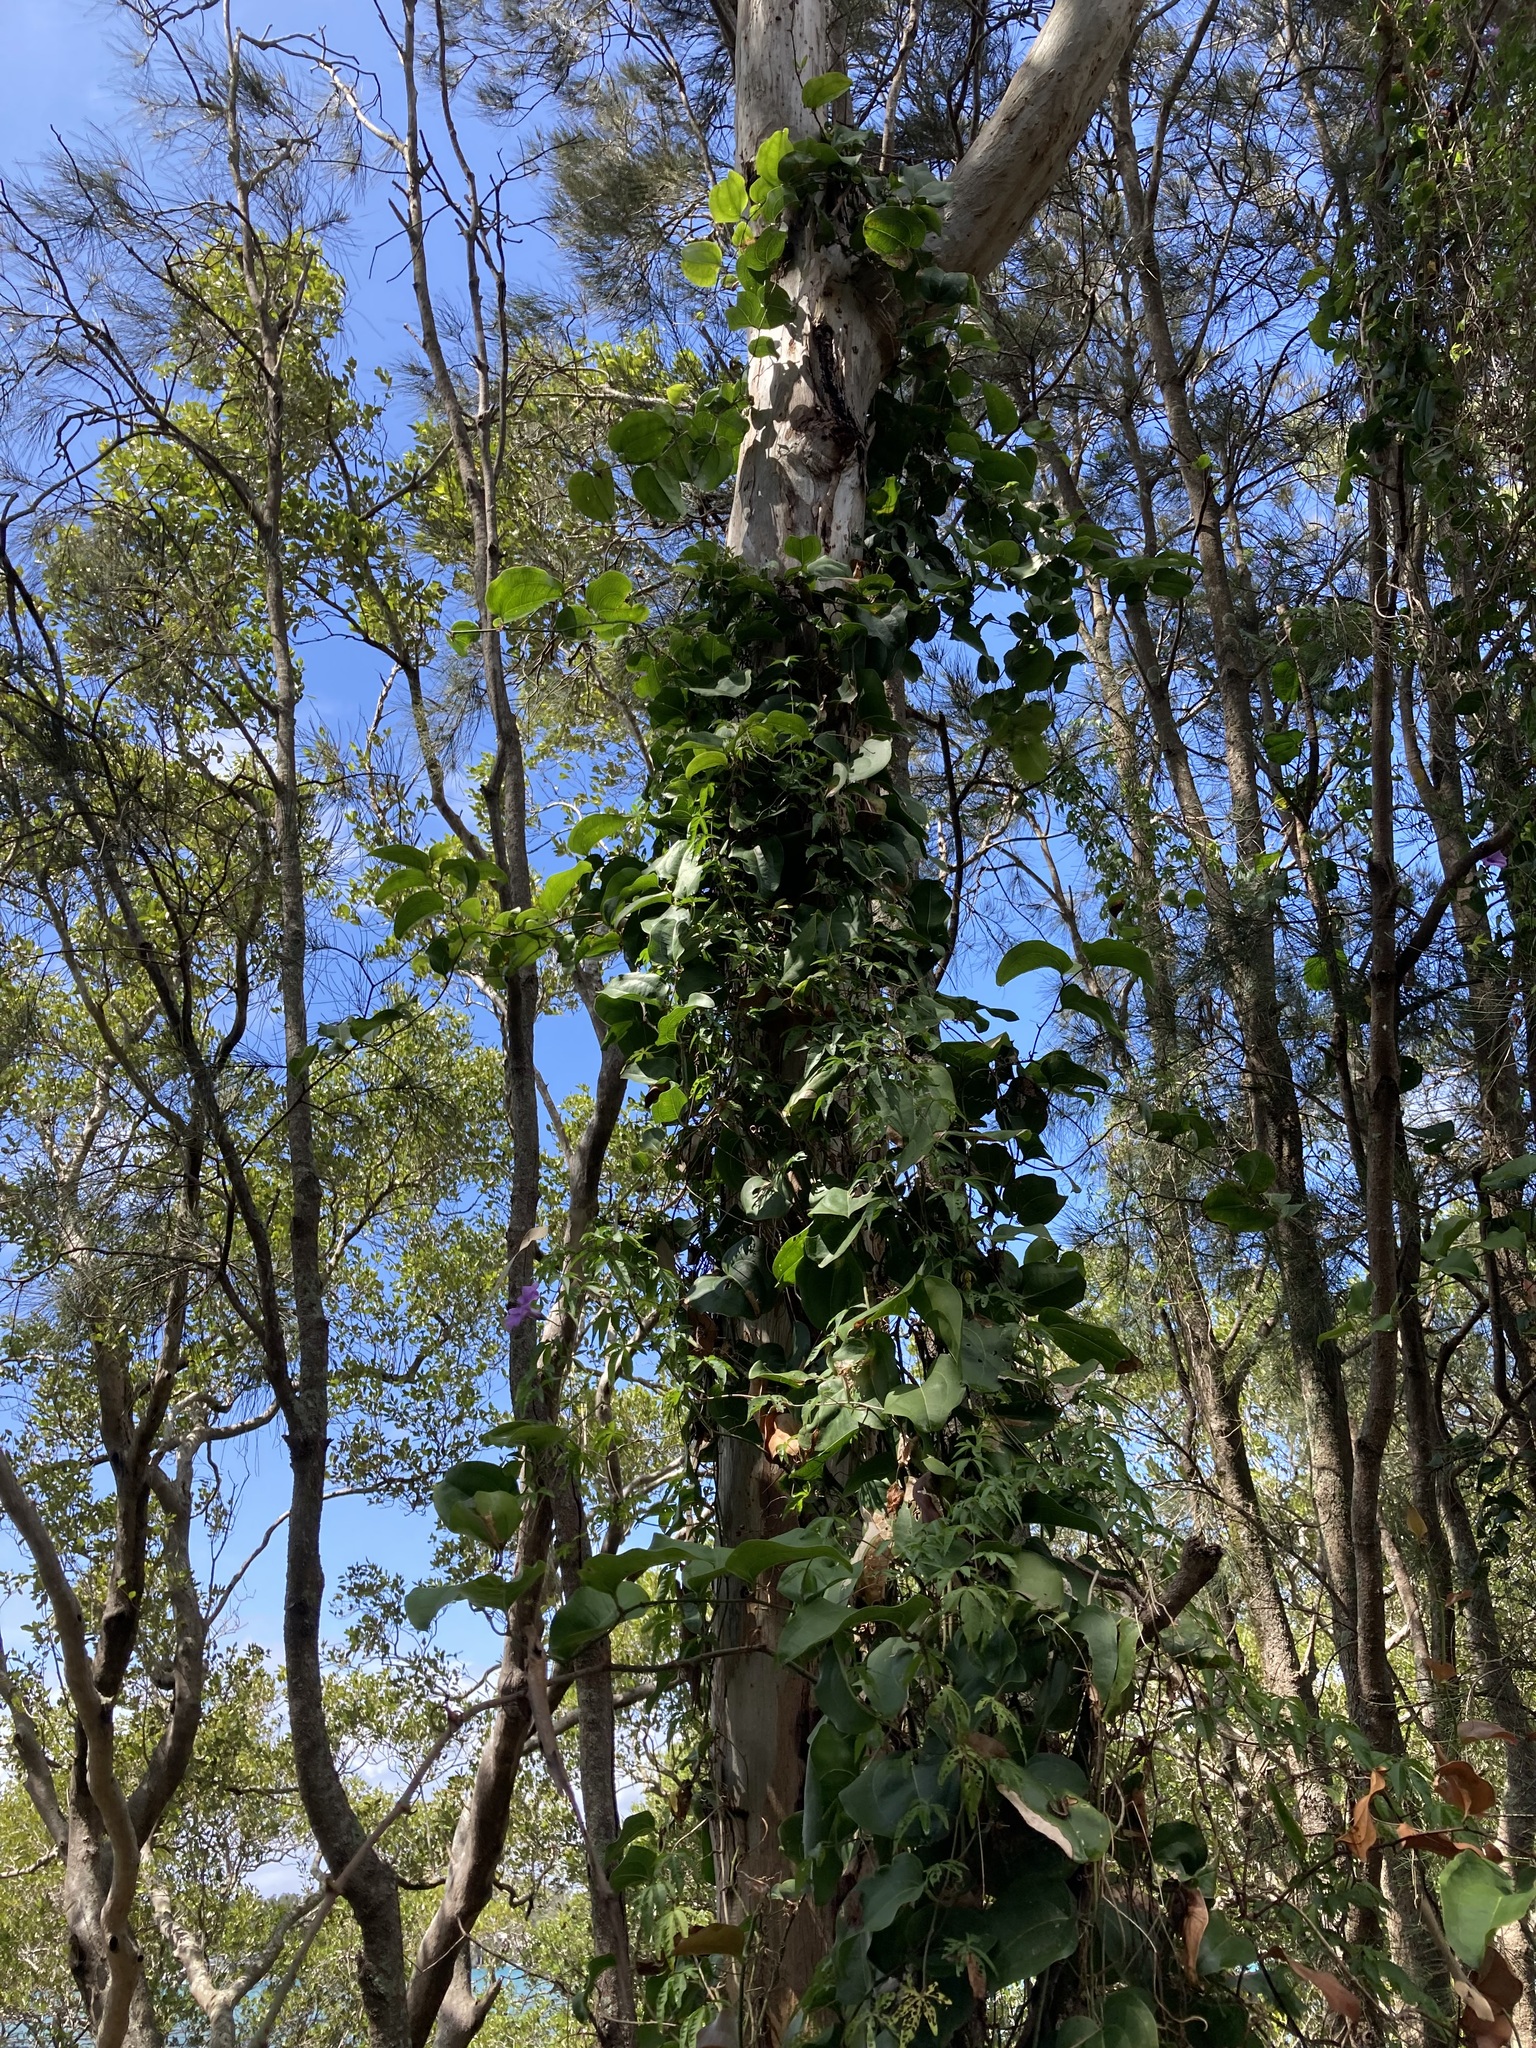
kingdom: Plantae
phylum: Tracheophyta
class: Liliopsida
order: Liliales
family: Smilacaceae
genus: Smilax
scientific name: Smilax australis
